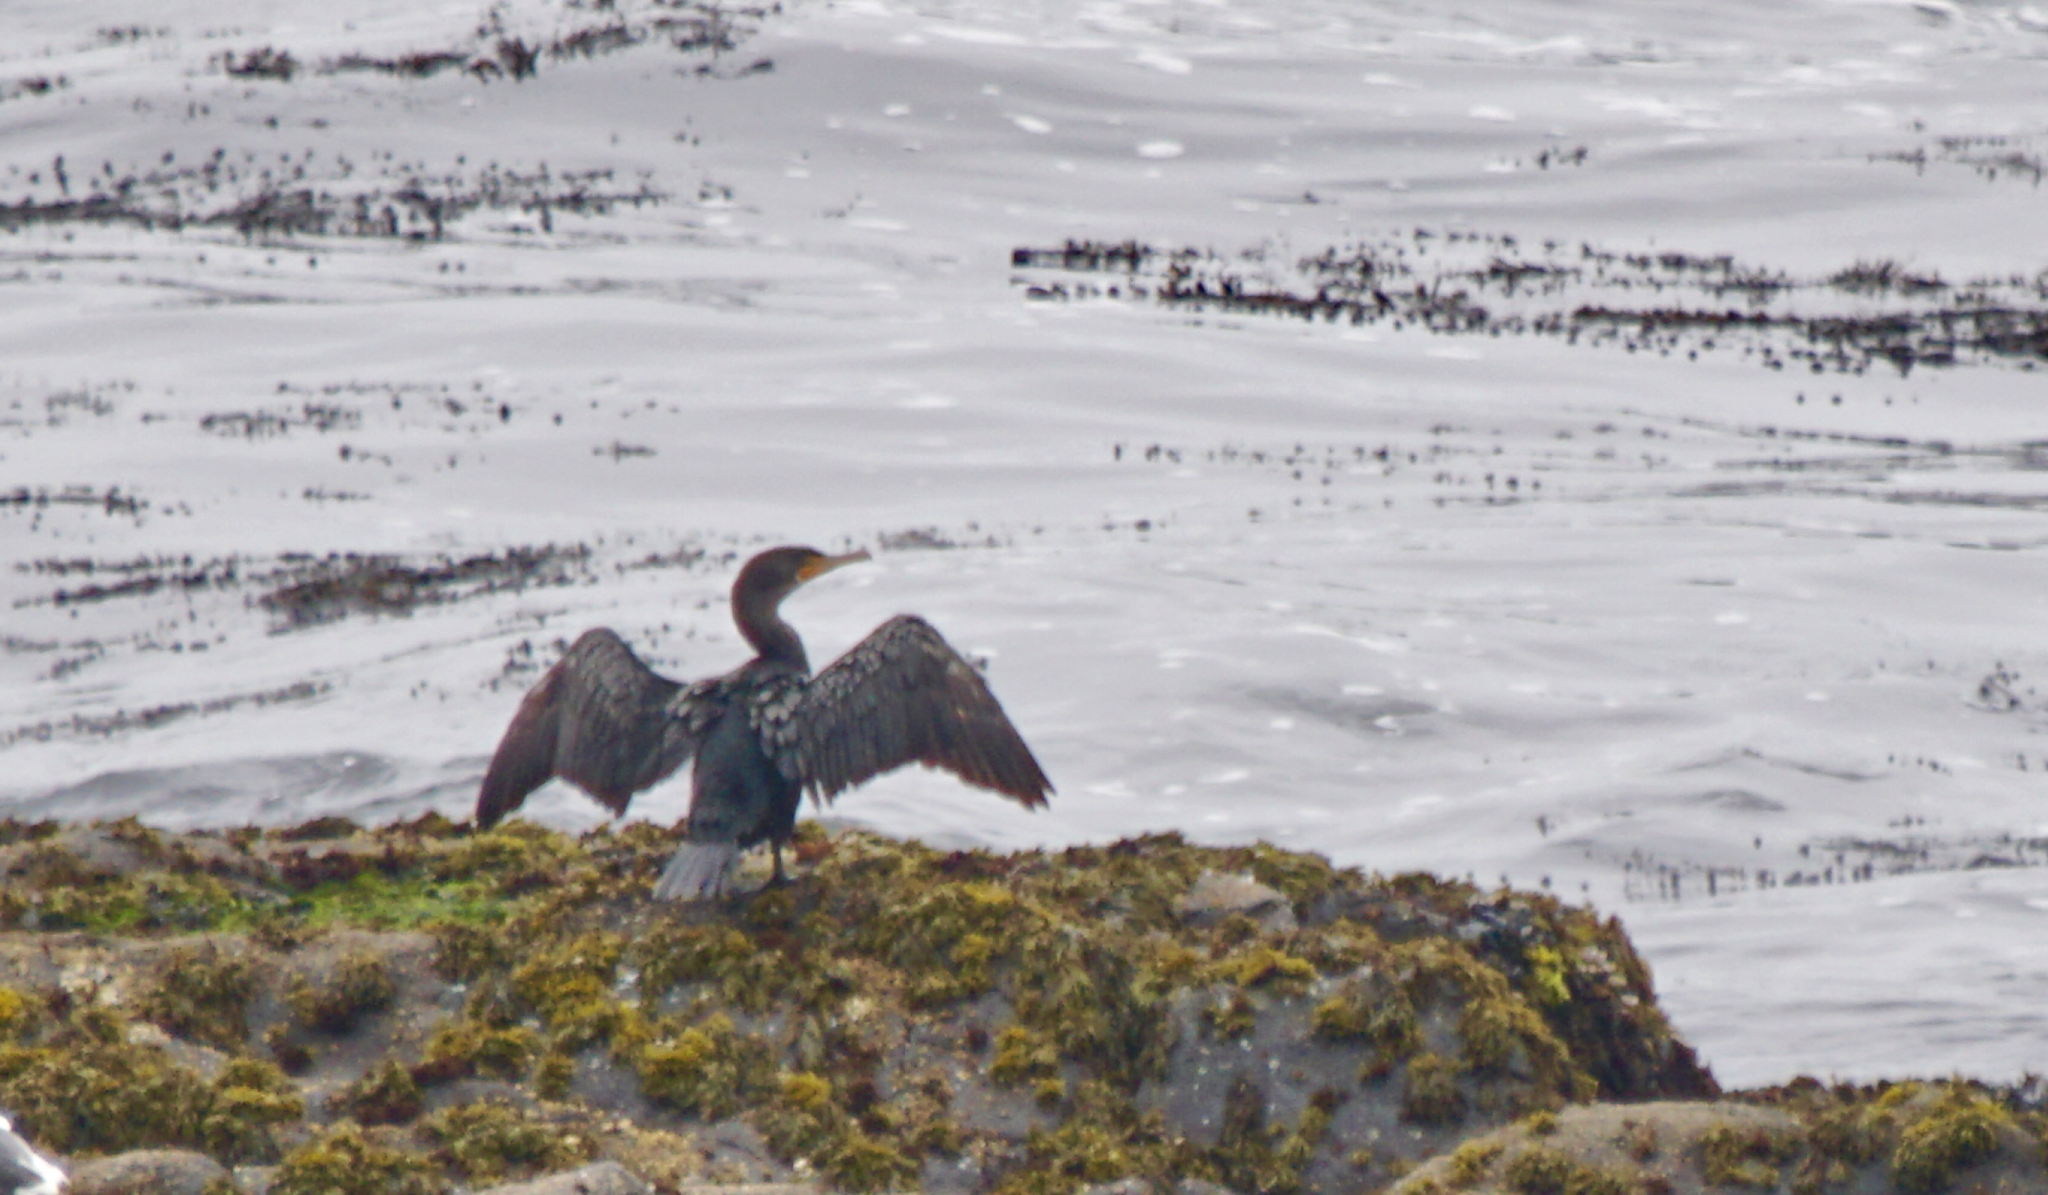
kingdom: Animalia
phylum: Chordata
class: Aves
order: Suliformes
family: Phalacrocoracidae
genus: Phalacrocorax
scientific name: Phalacrocorax auritus
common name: Double-crested cormorant
